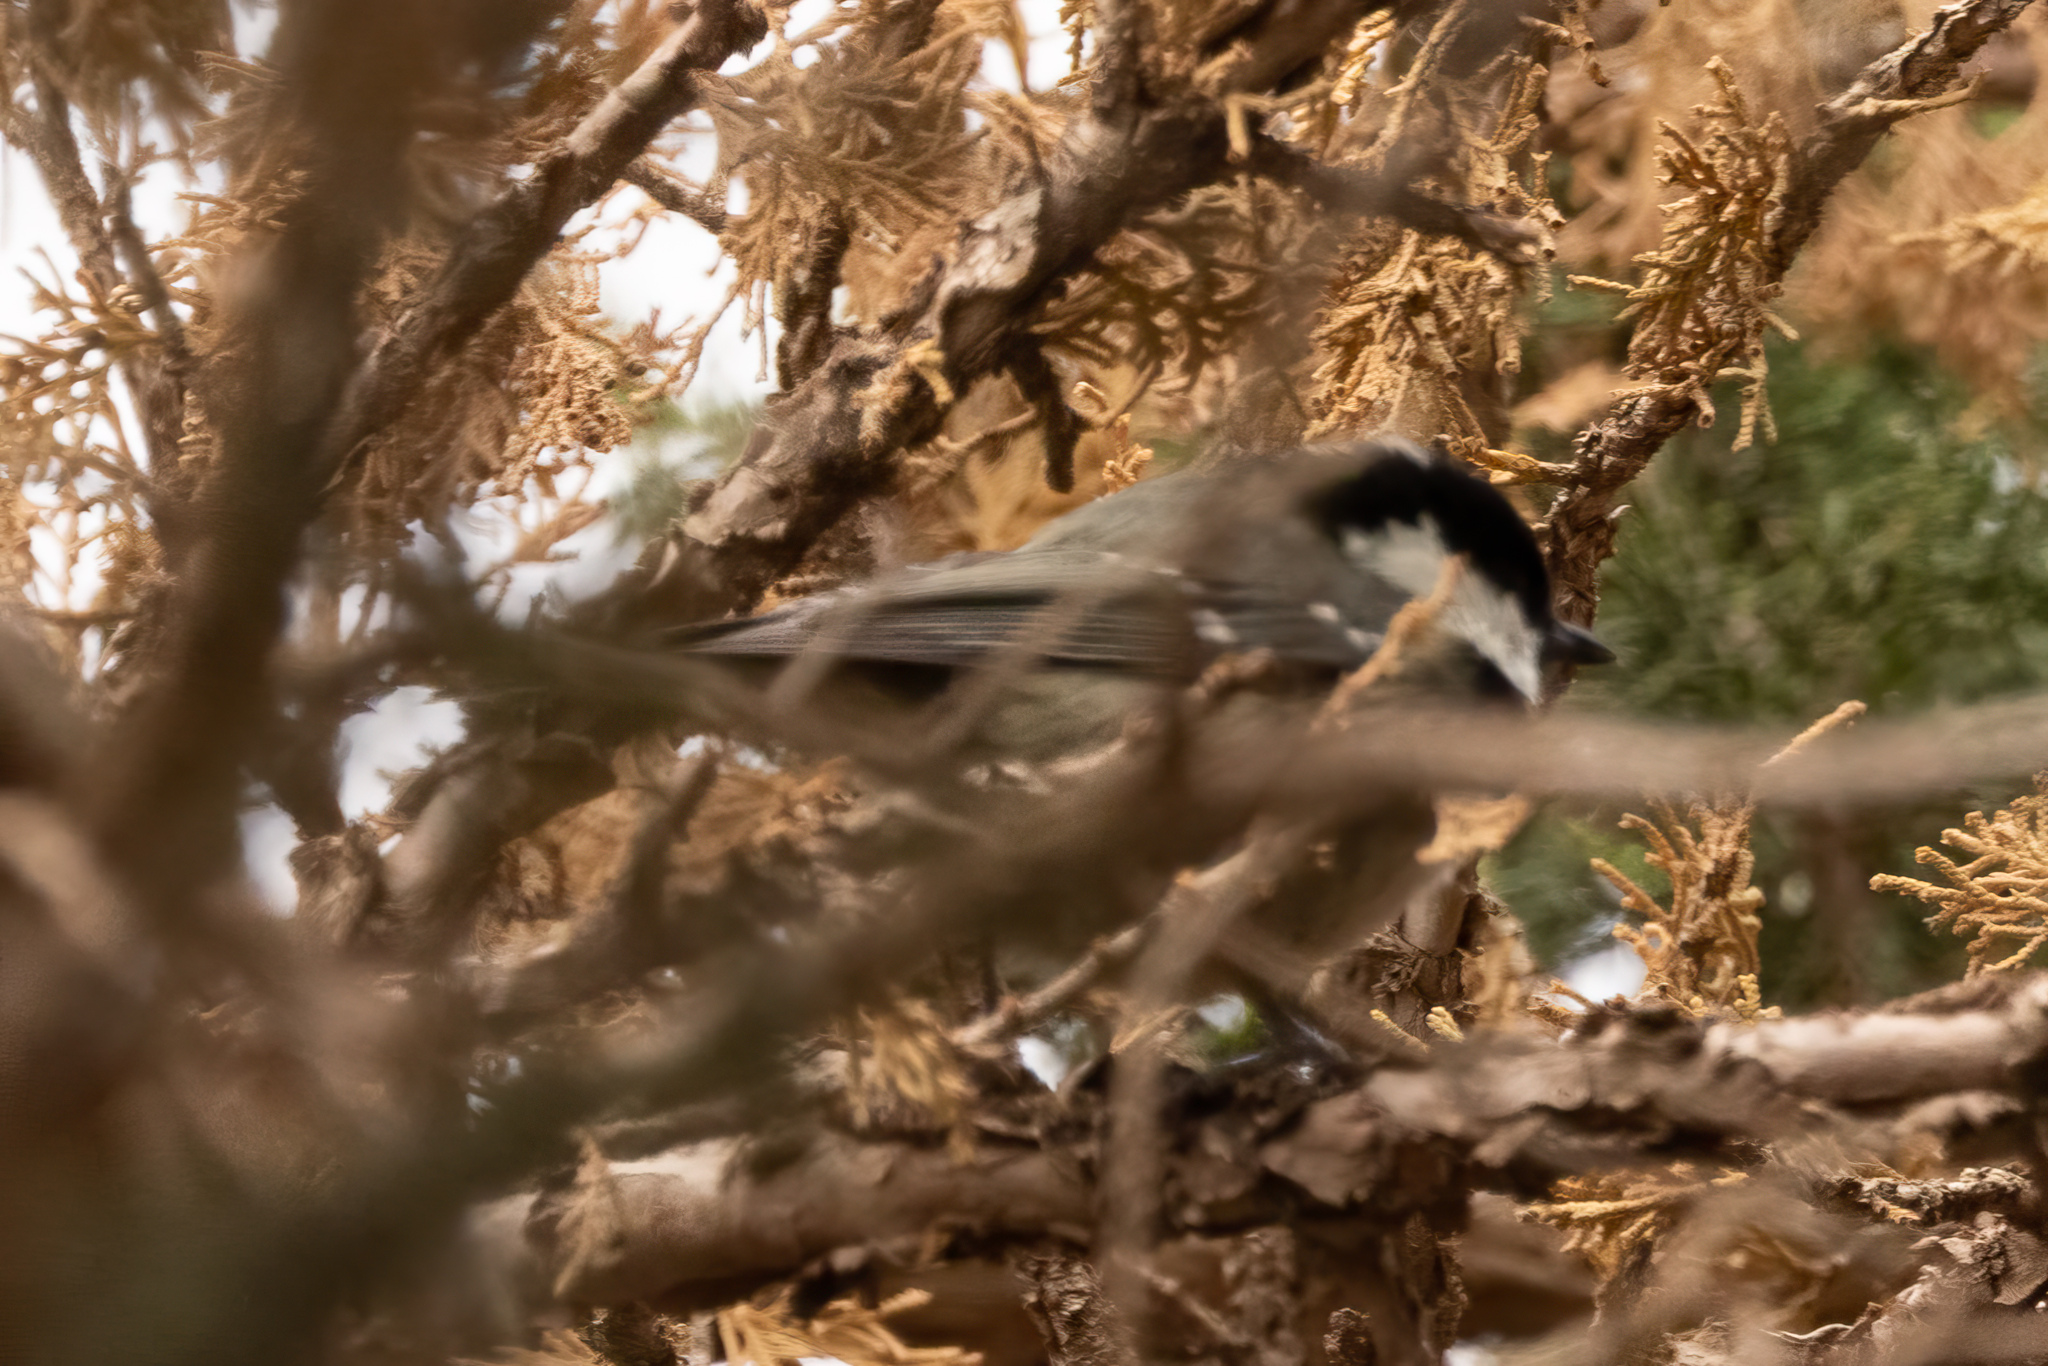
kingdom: Animalia
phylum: Chordata
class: Aves
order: Passeriformes
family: Paridae
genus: Periparus
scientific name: Periparus ater
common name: Coal tit
